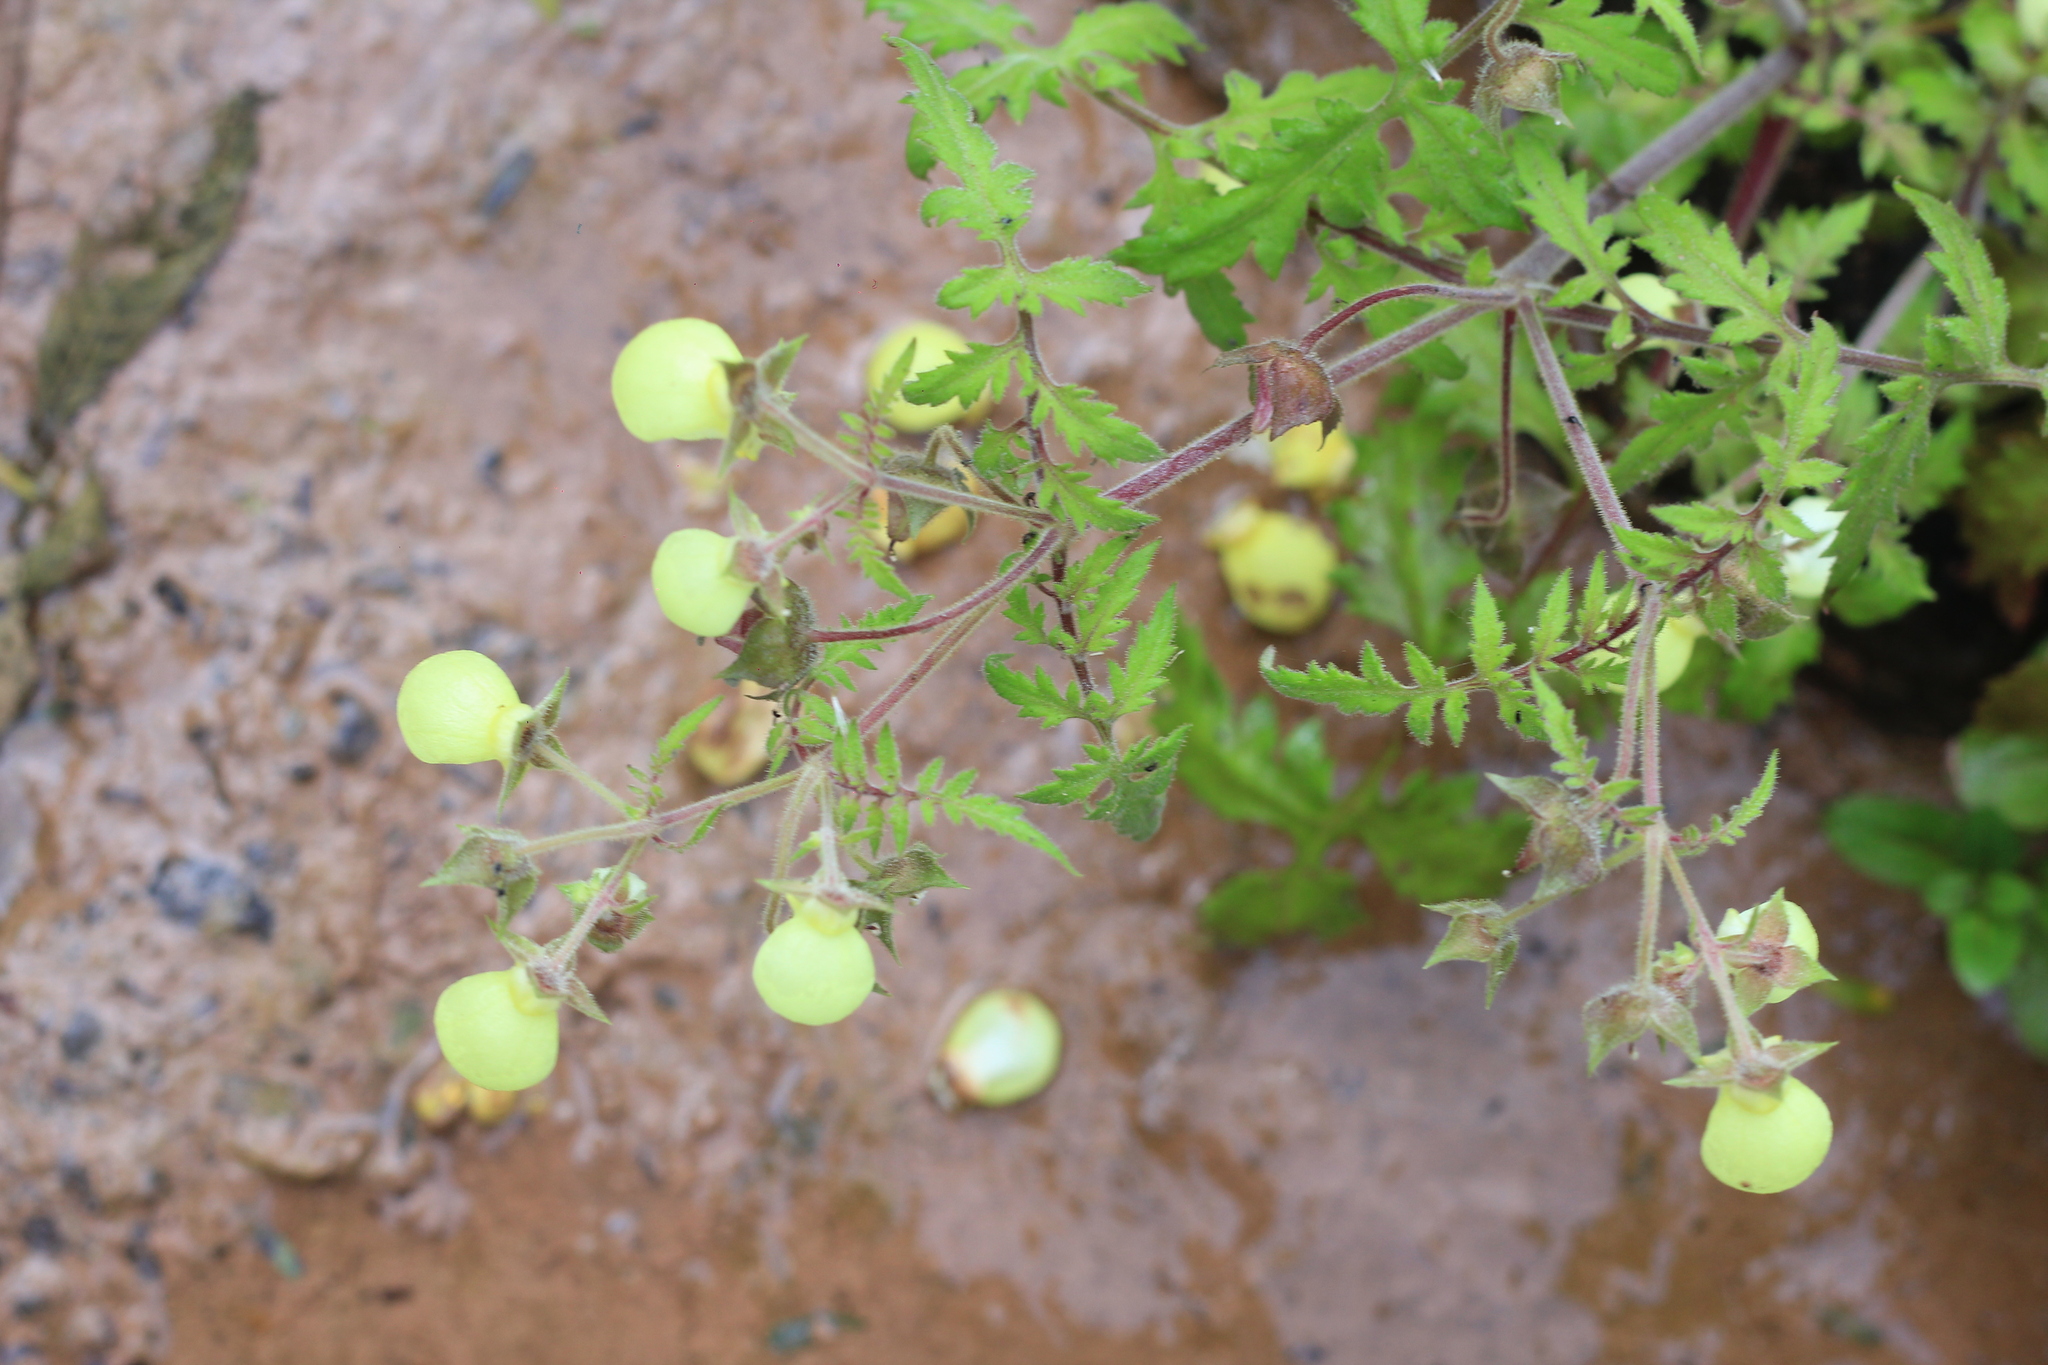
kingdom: Plantae
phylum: Tracheophyta
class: Magnoliopsida
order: Lamiales
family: Calceolariaceae
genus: Calceolaria
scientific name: Calceolaria chelidonioides
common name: Slipperwort
